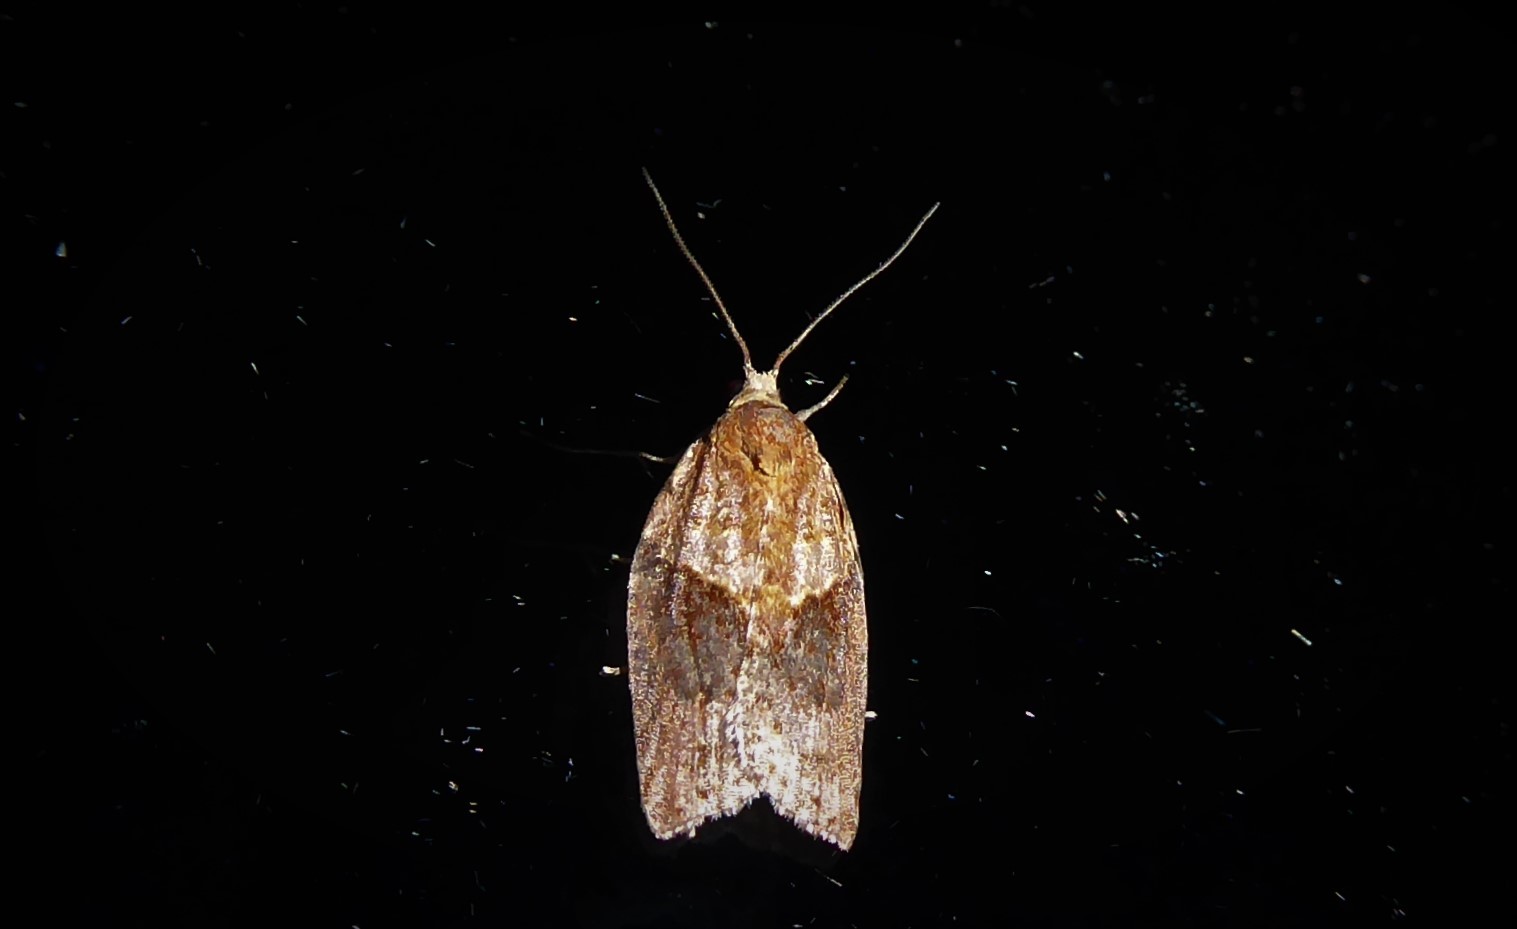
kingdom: Animalia
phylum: Arthropoda
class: Insecta
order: Lepidoptera
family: Tortricidae
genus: Epiphyas
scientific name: Epiphyas postvittana
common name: Light brown apple moth
